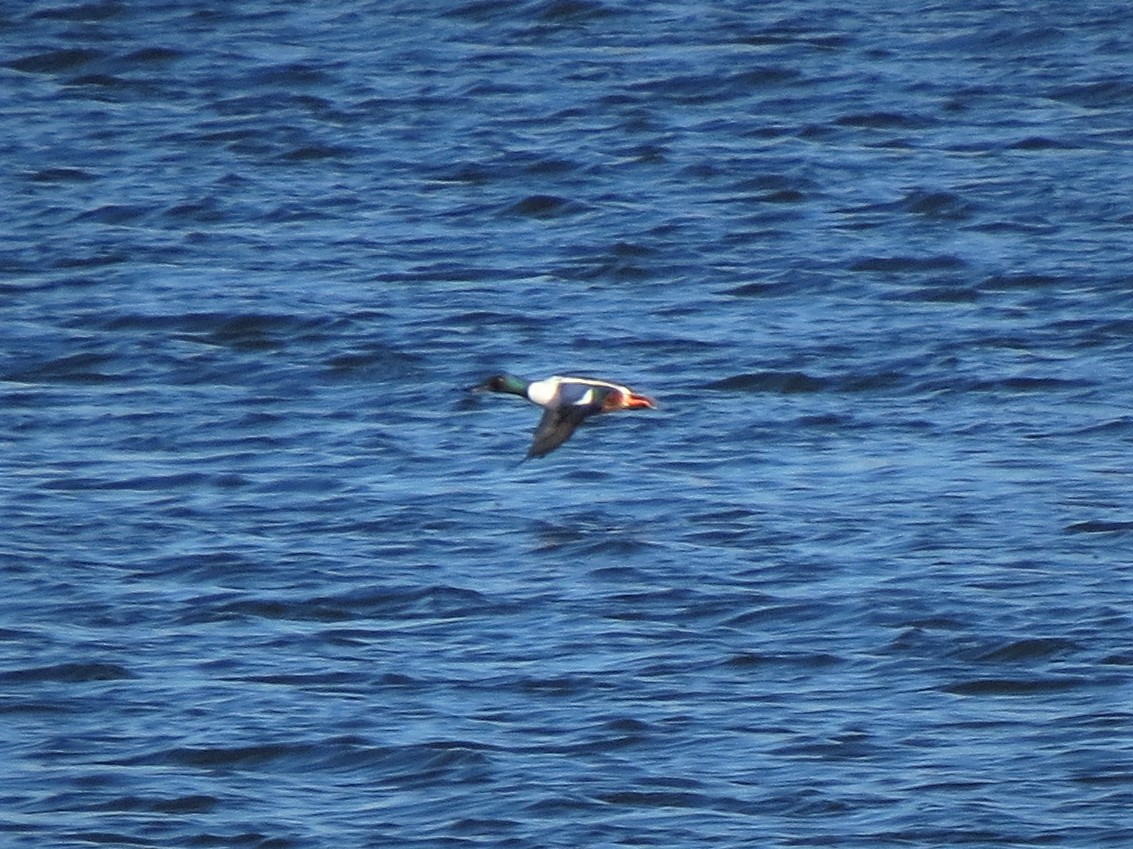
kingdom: Animalia
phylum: Chordata
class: Aves
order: Anseriformes
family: Anatidae
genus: Spatula
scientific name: Spatula clypeata
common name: Northern shoveler
